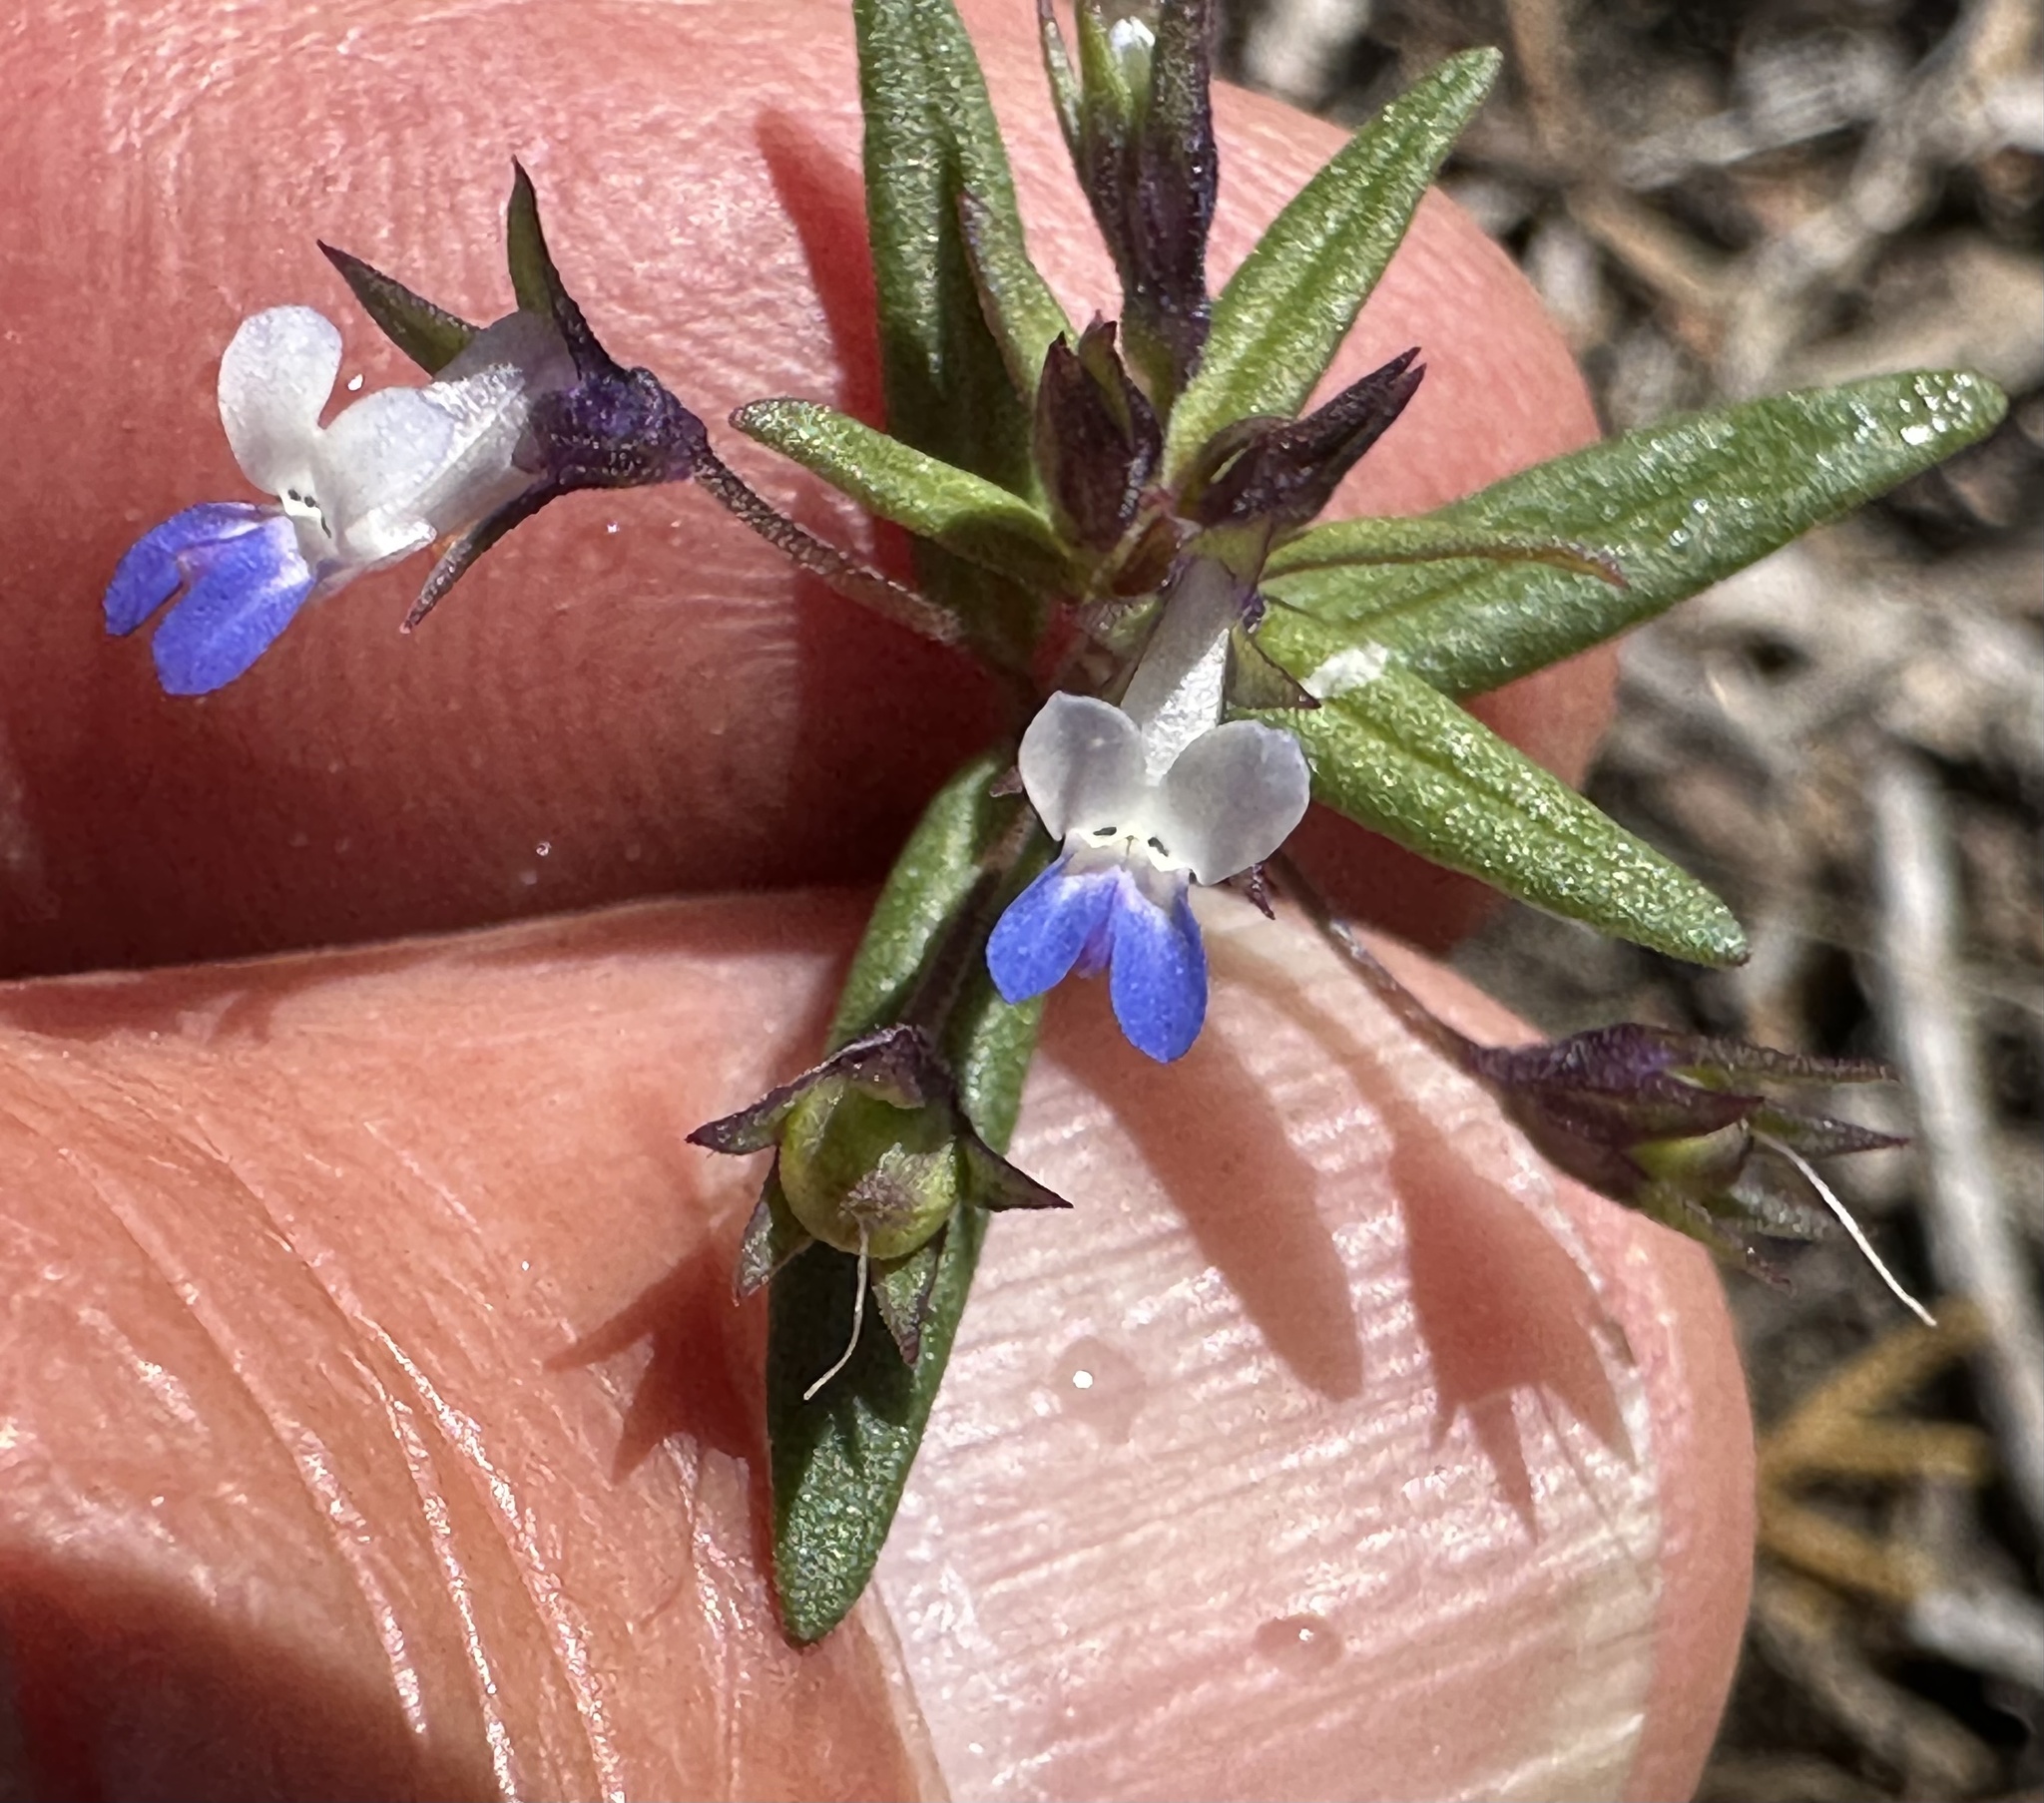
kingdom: Plantae
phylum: Tracheophyta
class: Magnoliopsida
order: Lamiales
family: Plantaginaceae
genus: Collinsia
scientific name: Collinsia parviflora
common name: Blue-lips
